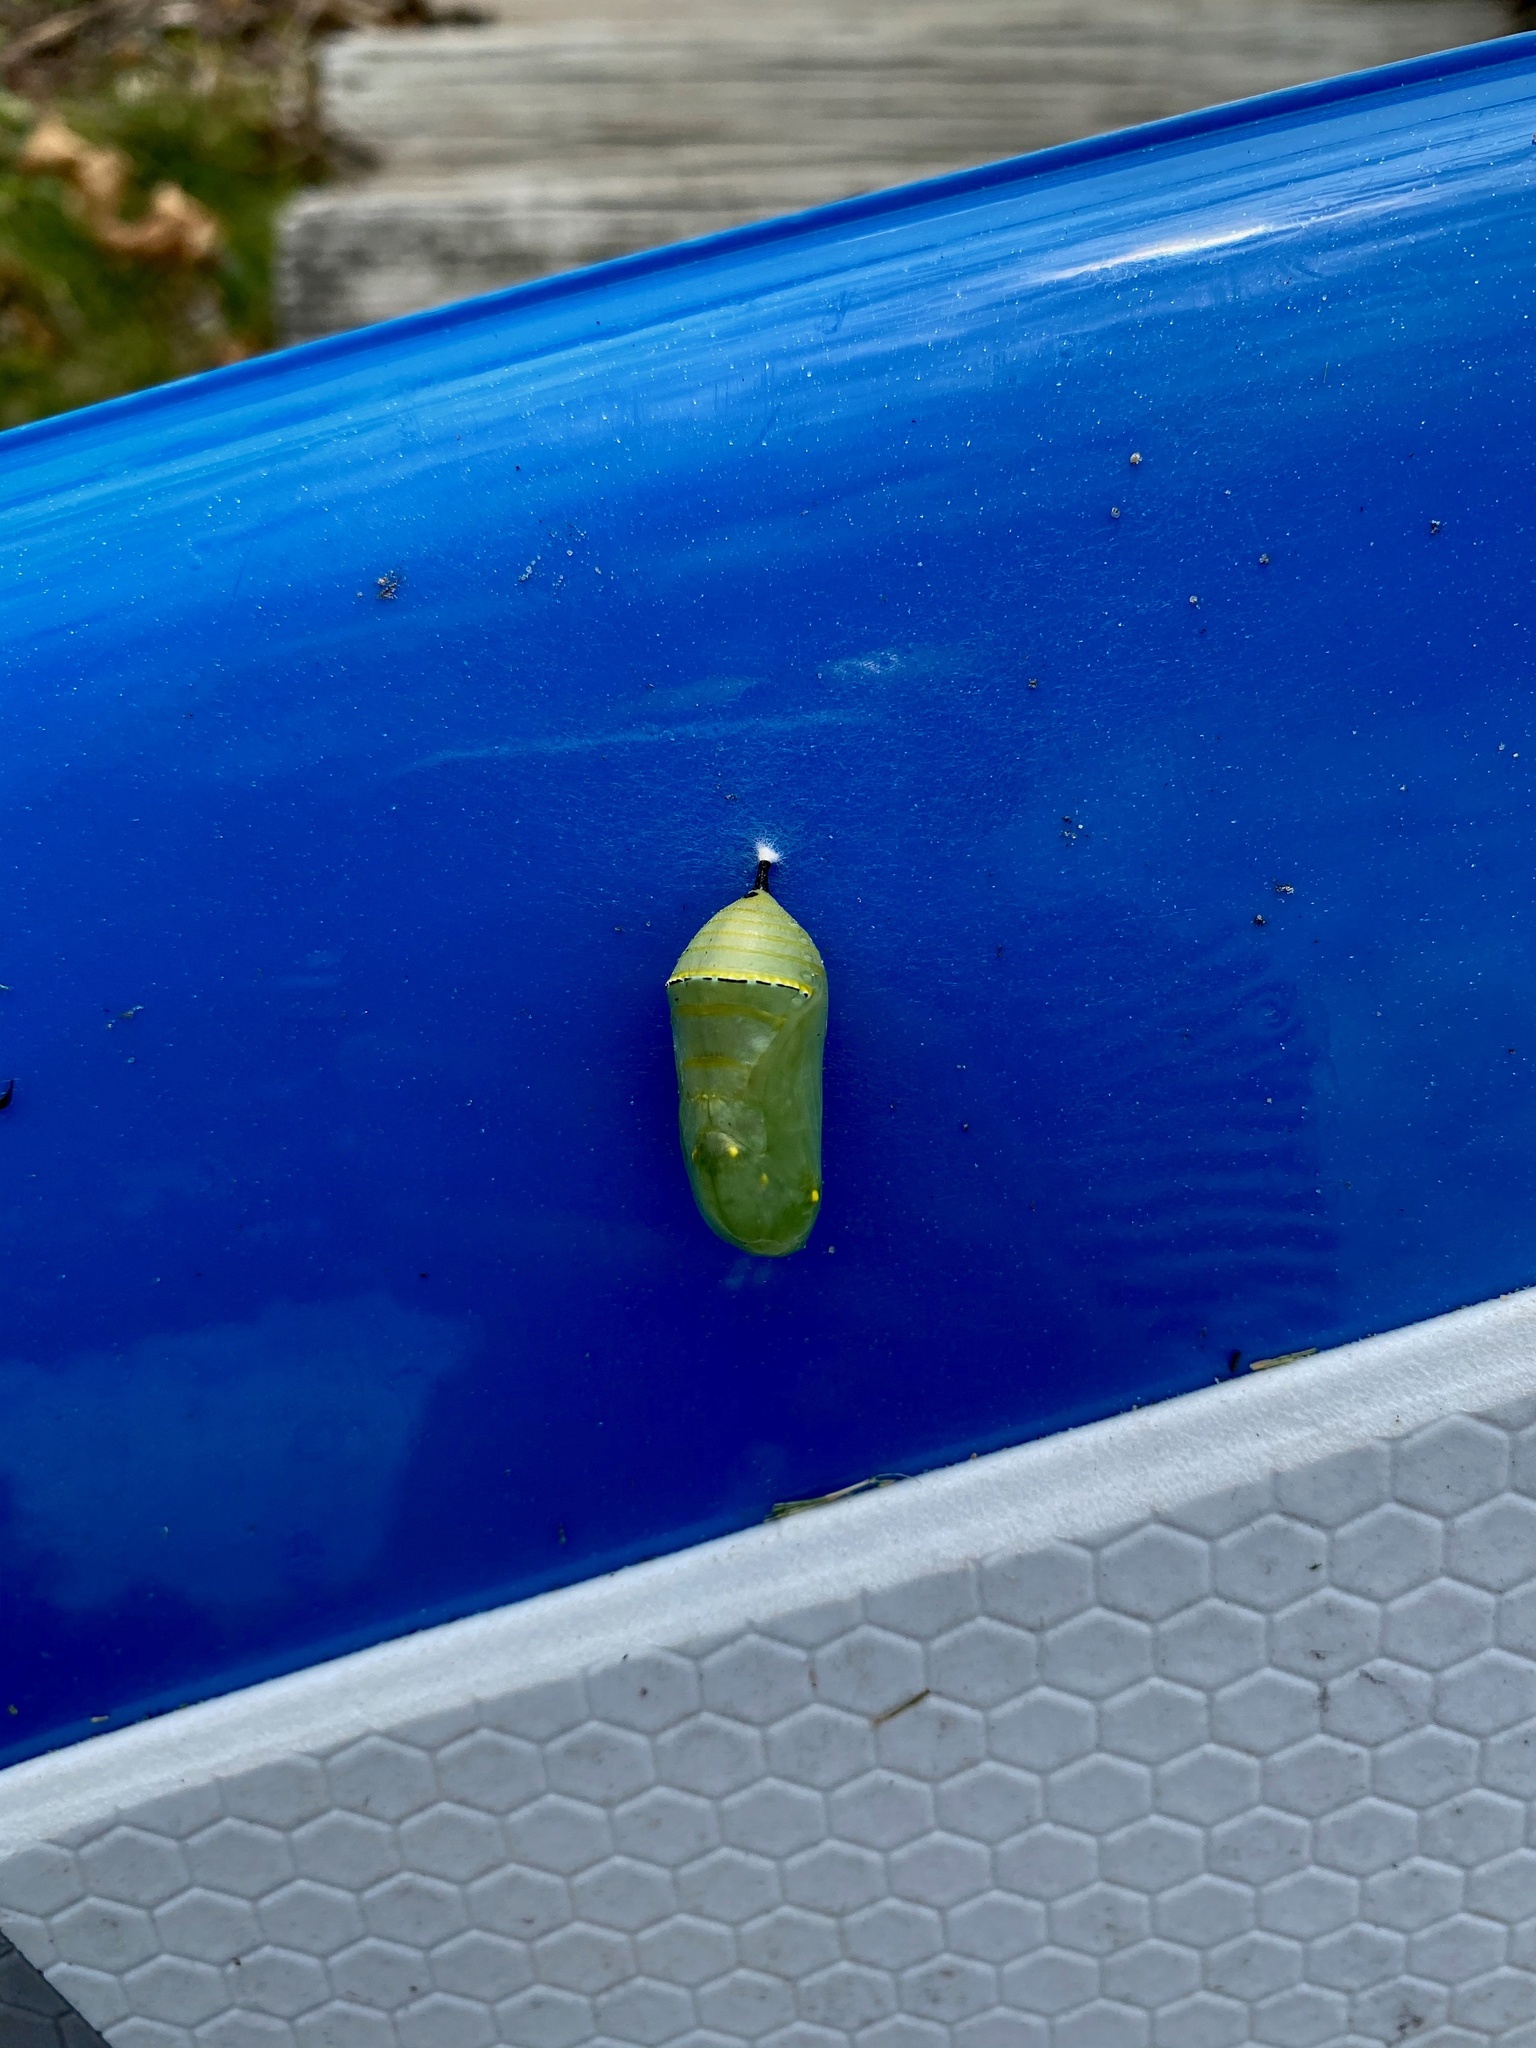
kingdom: Animalia
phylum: Arthropoda
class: Insecta
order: Lepidoptera
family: Nymphalidae
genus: Danaus
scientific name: Danaus plexippus
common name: Monarch
